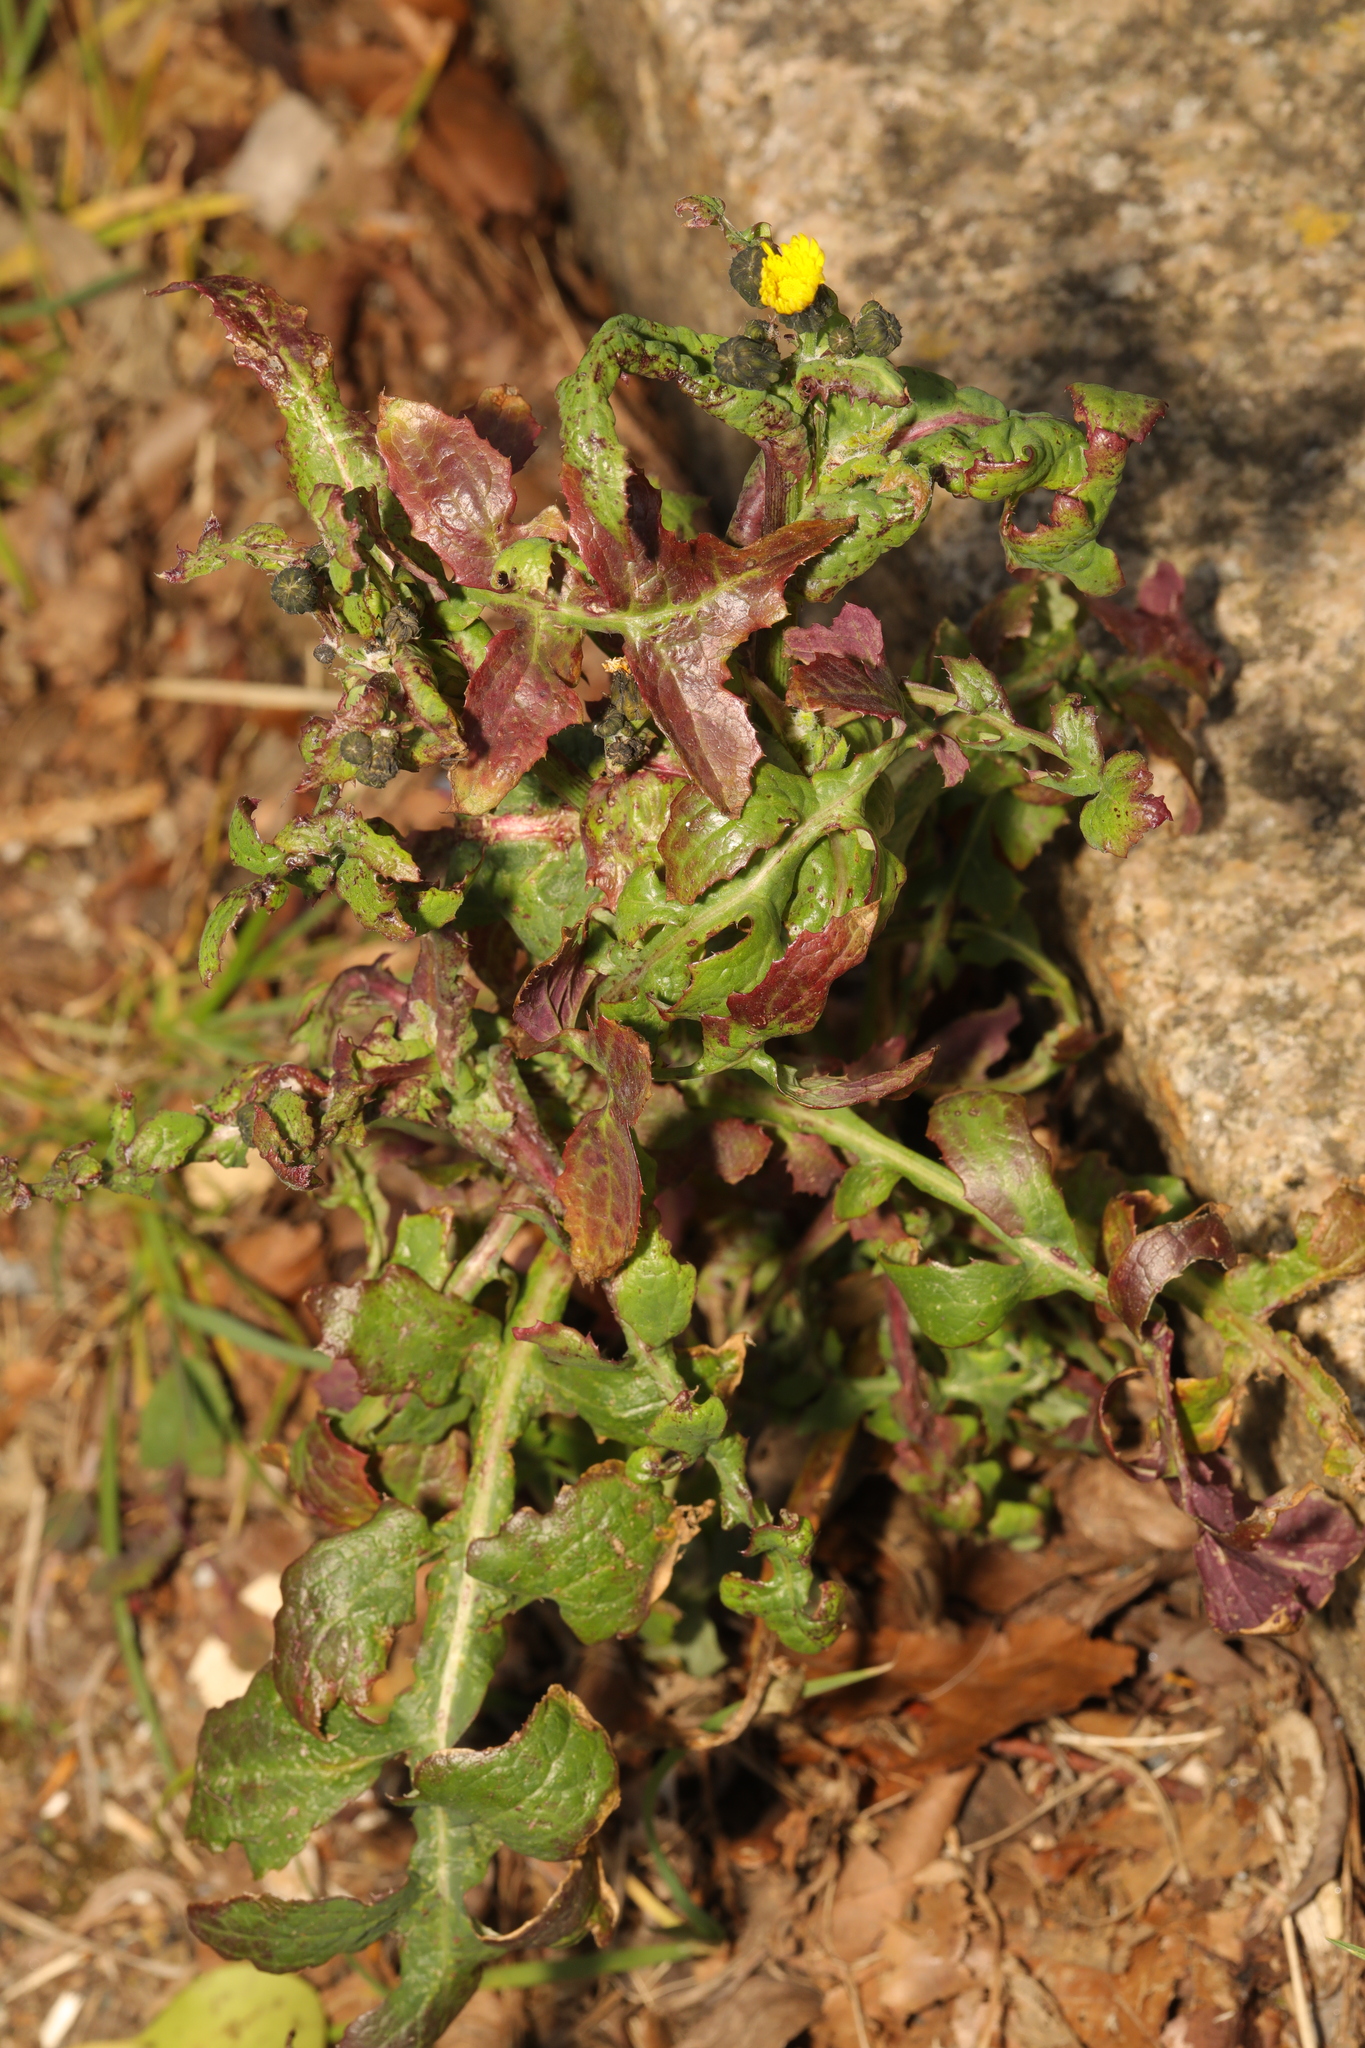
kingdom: Plantae
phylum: Tracheophyta
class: Magnoliopsida
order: Asterales
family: Asteraceae
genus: Sonchus
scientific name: Sonchus oleraceus
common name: Common sowthistle
